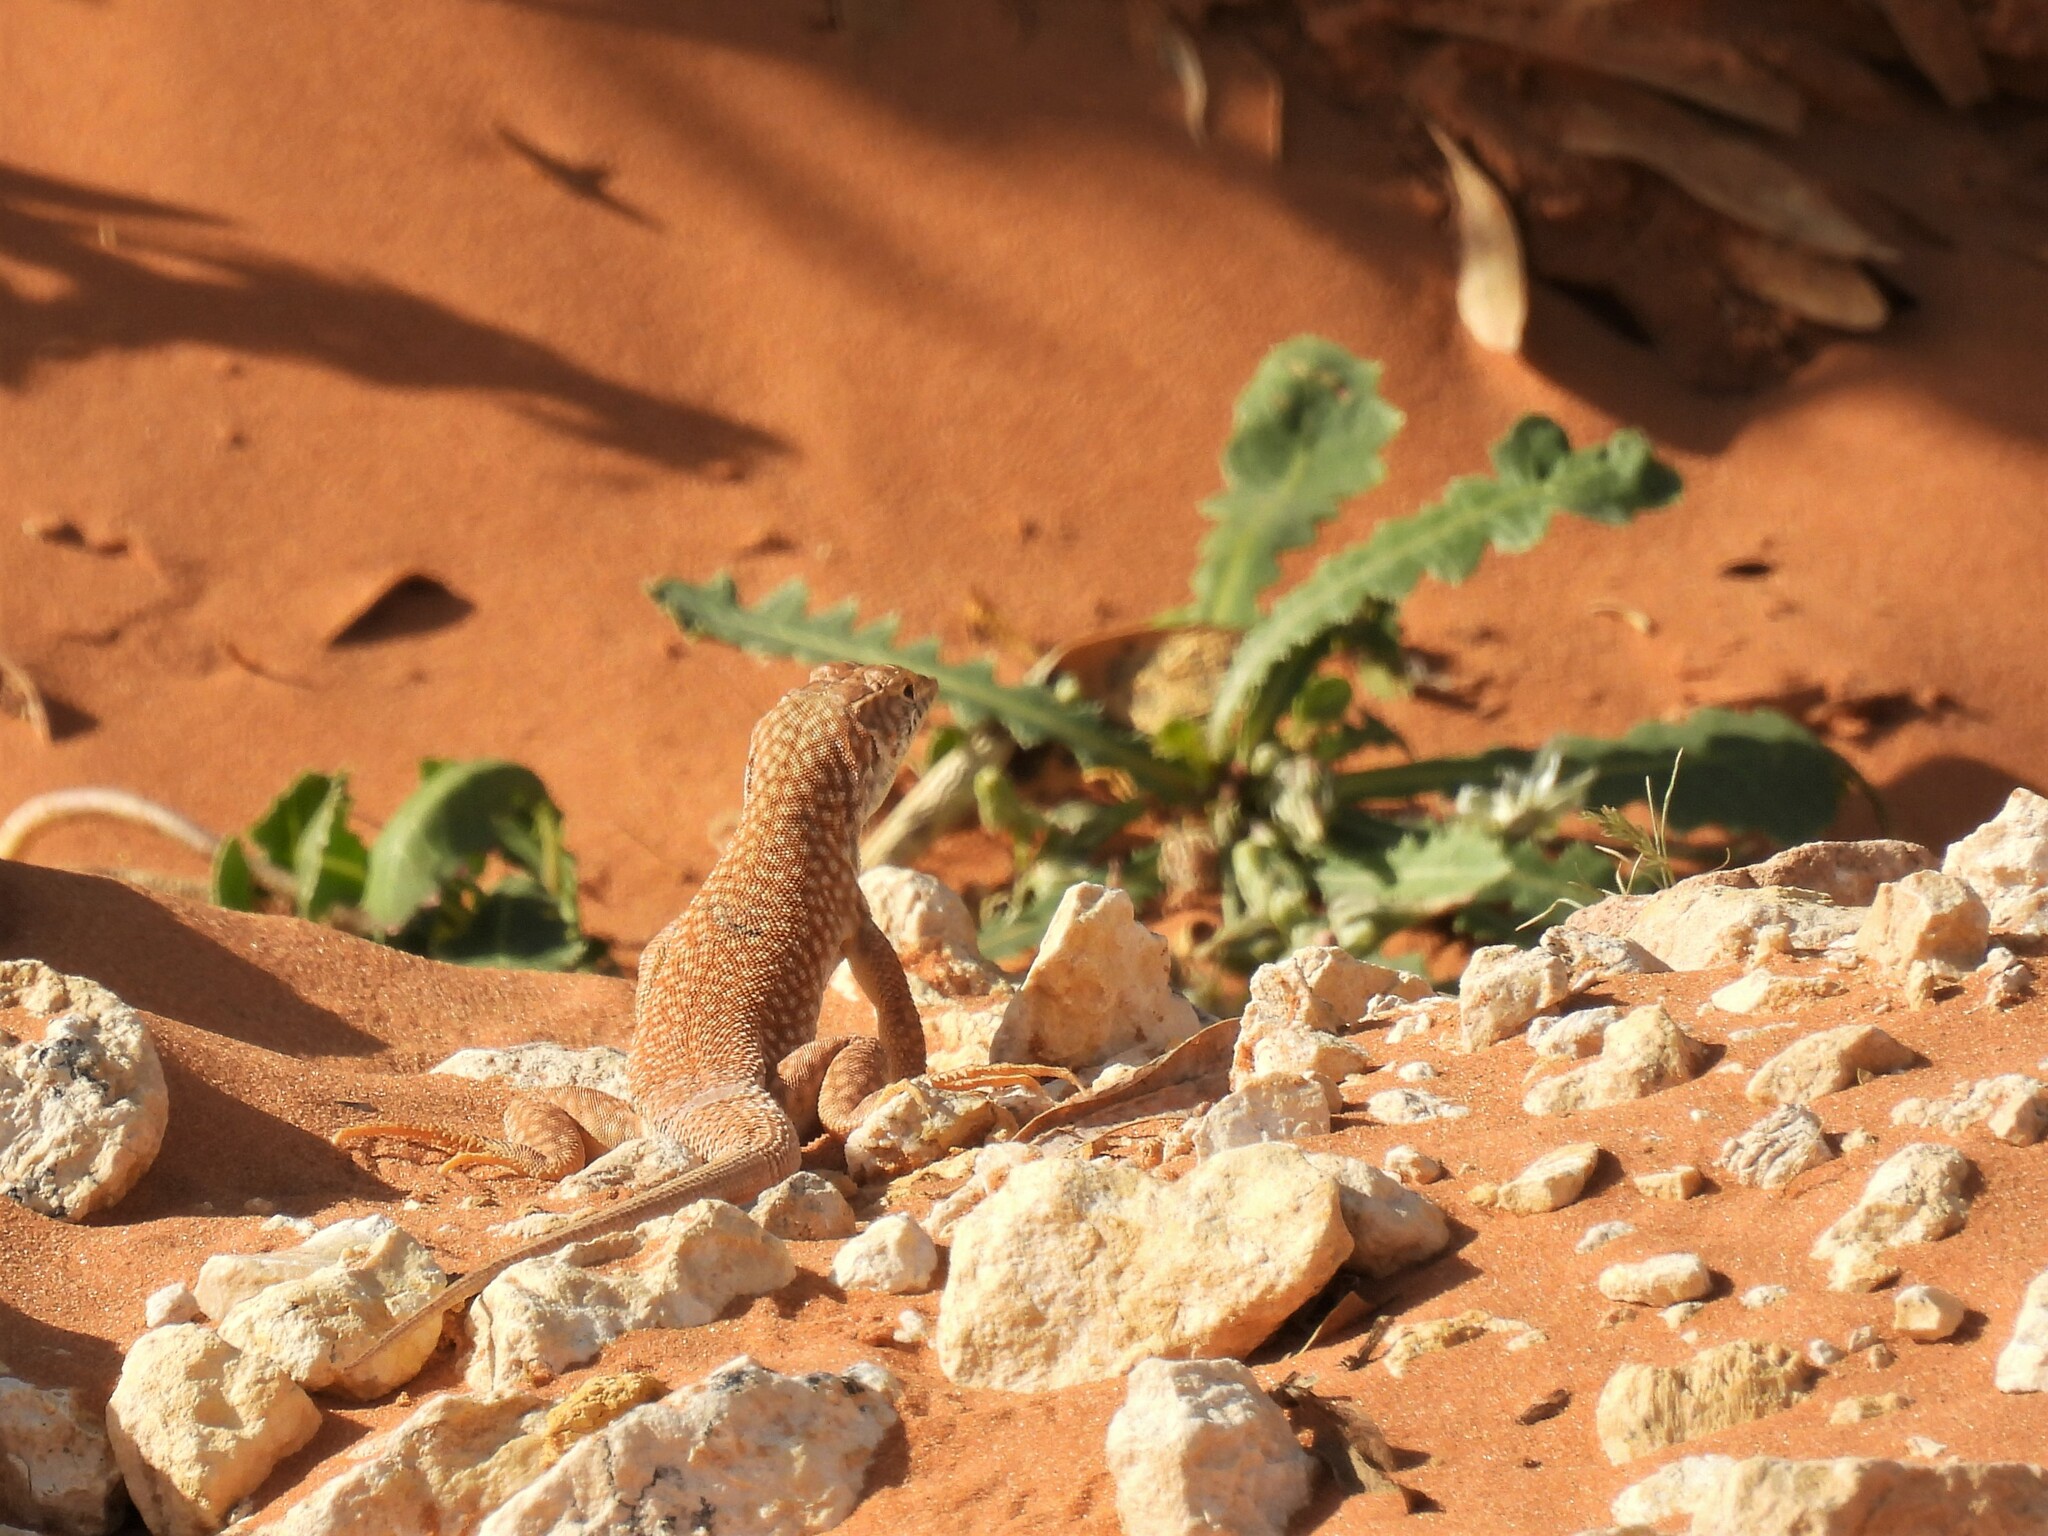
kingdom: Animalia
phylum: Chordata
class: Squamata
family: Lacertidae
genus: Acanthodactylus
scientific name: Acanthodactylus schmidti
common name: Schmidt's fringe-toed lizard
